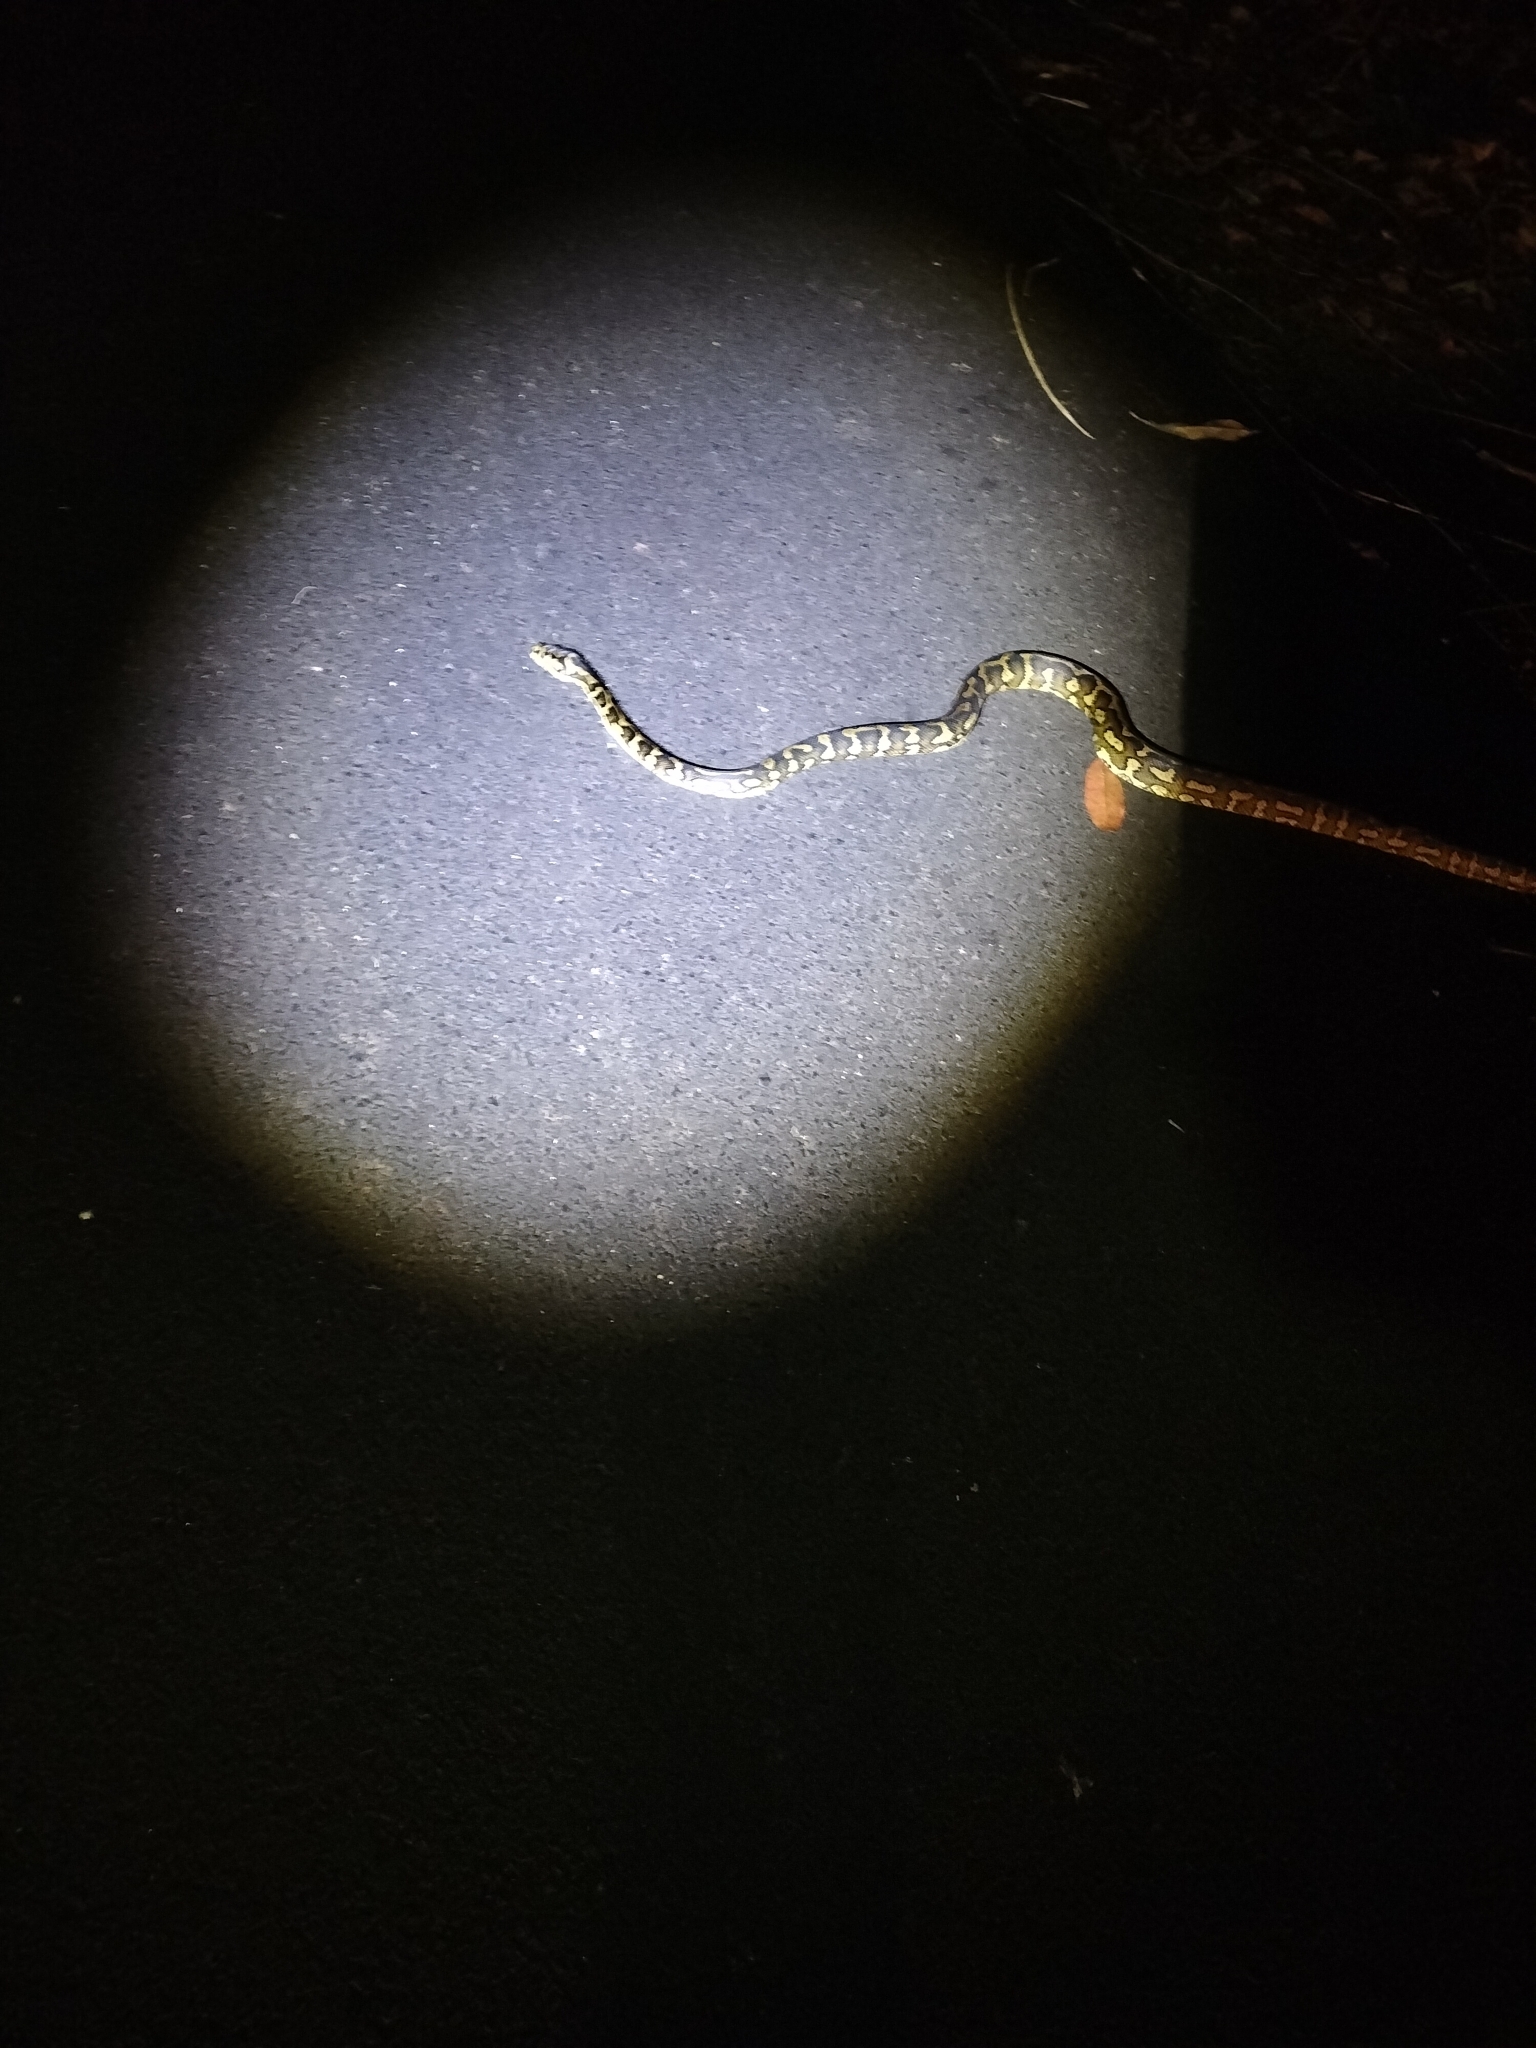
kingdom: Animalia
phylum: Chordata
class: Squamata
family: Pythonidae
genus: Morelia
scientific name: Morelia spilota
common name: Carpet python
